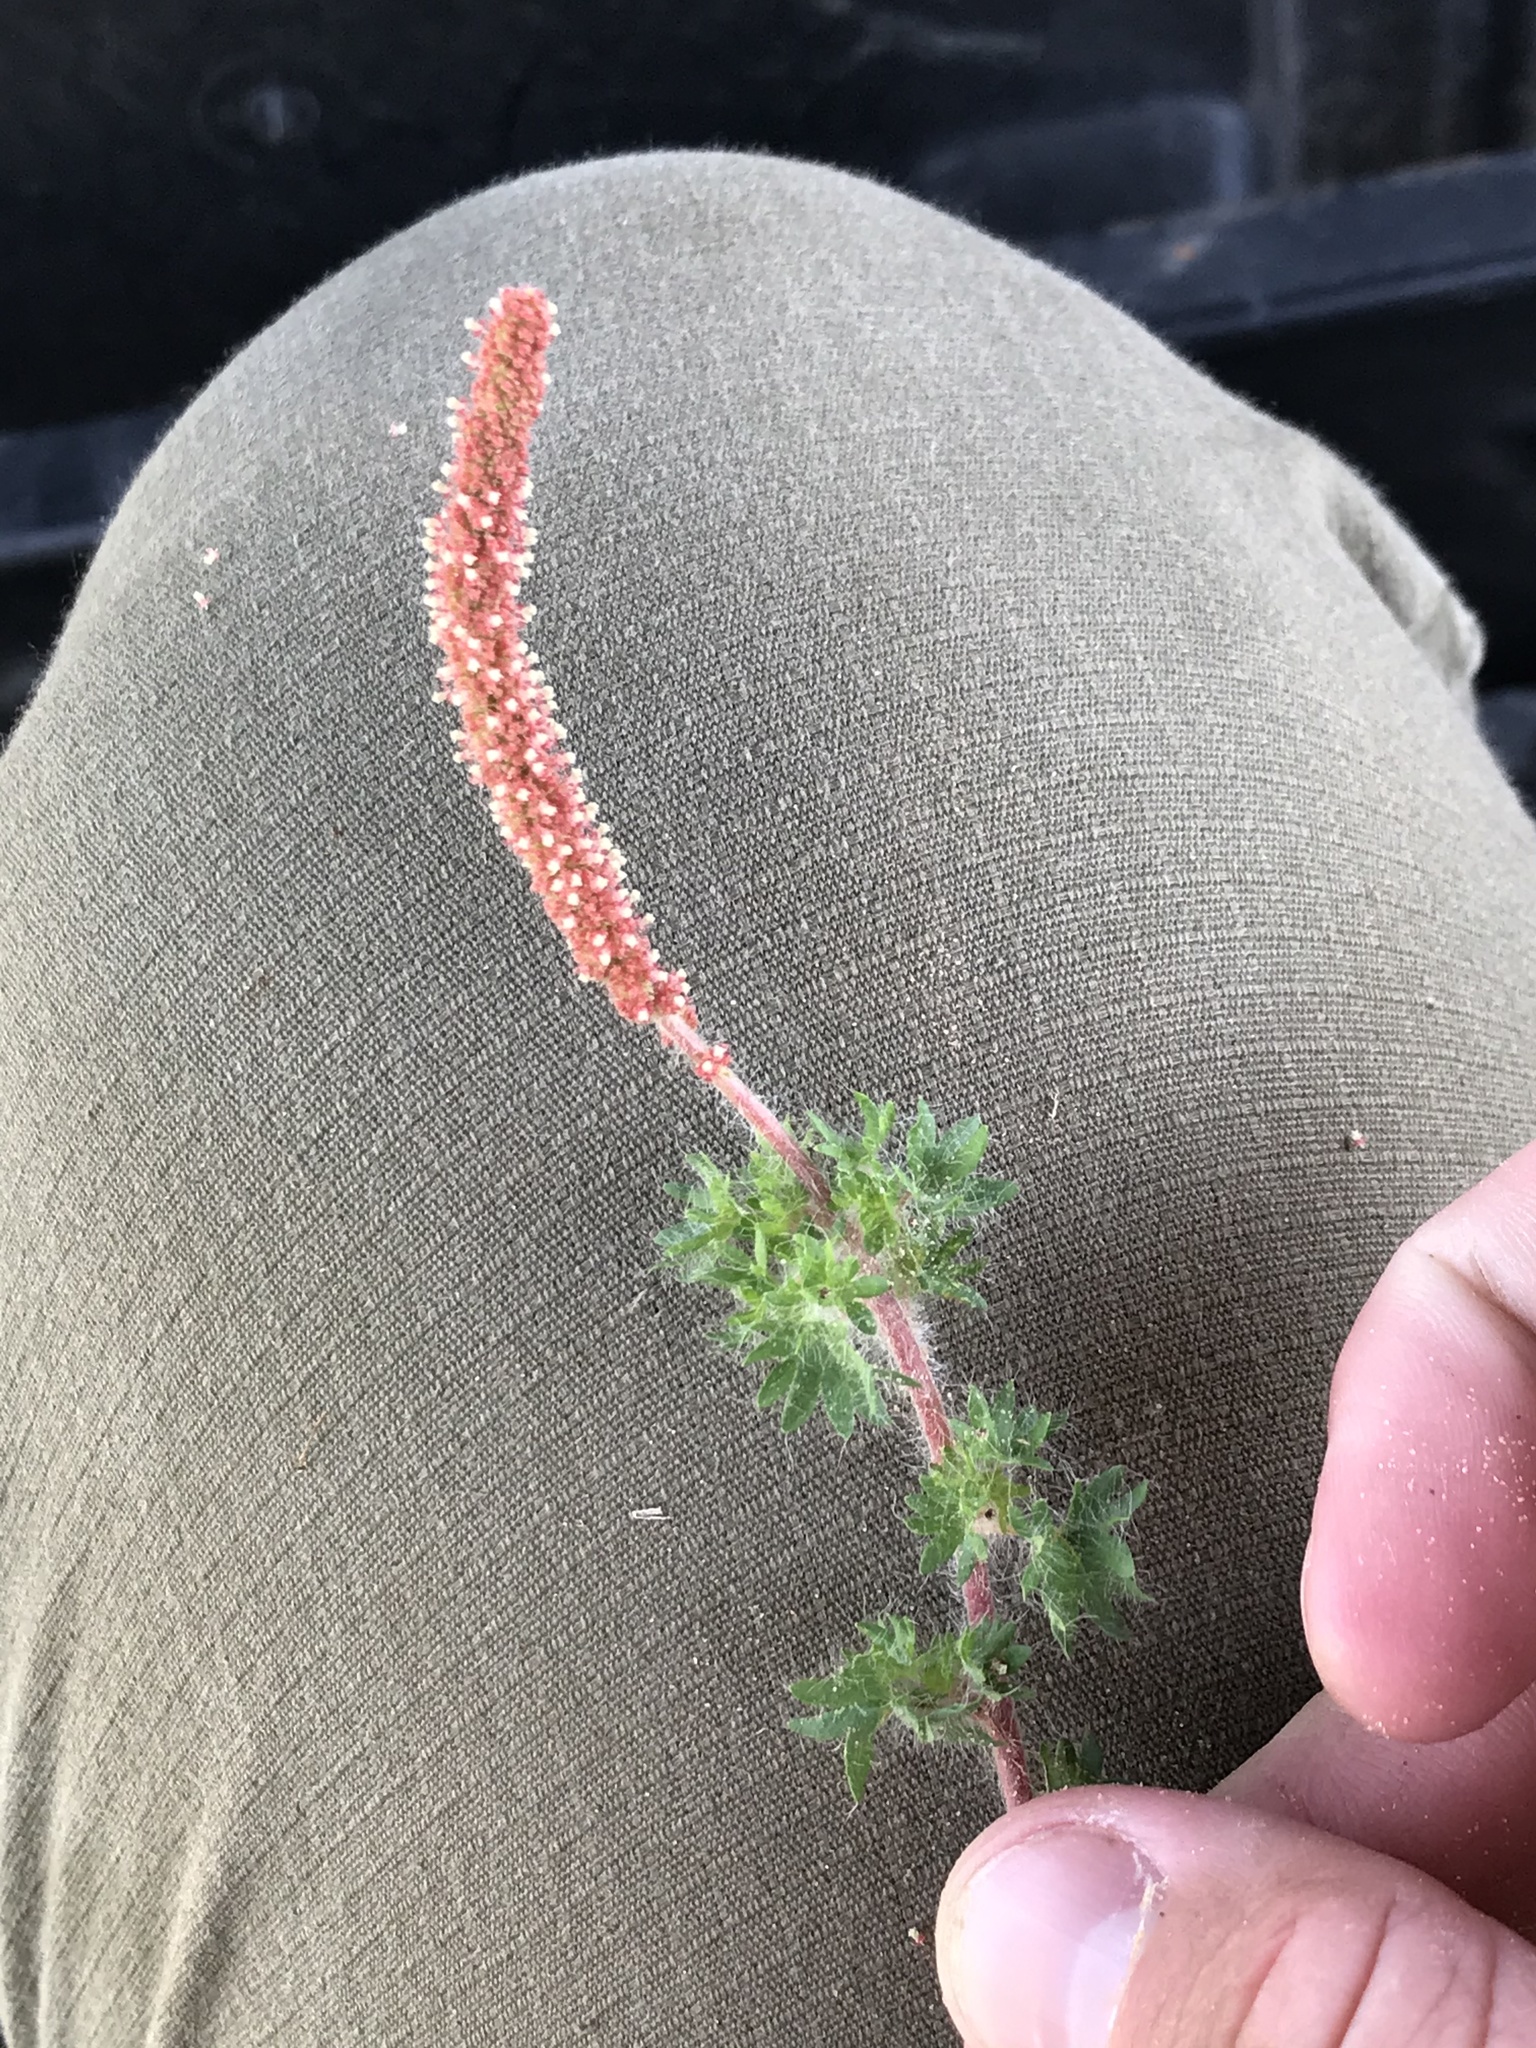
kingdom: Plantae
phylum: Tracheophyta
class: Magnoliopsida
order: Malpighiales
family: Euphorbiaceae
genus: Acalypha
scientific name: Acalypha radians
